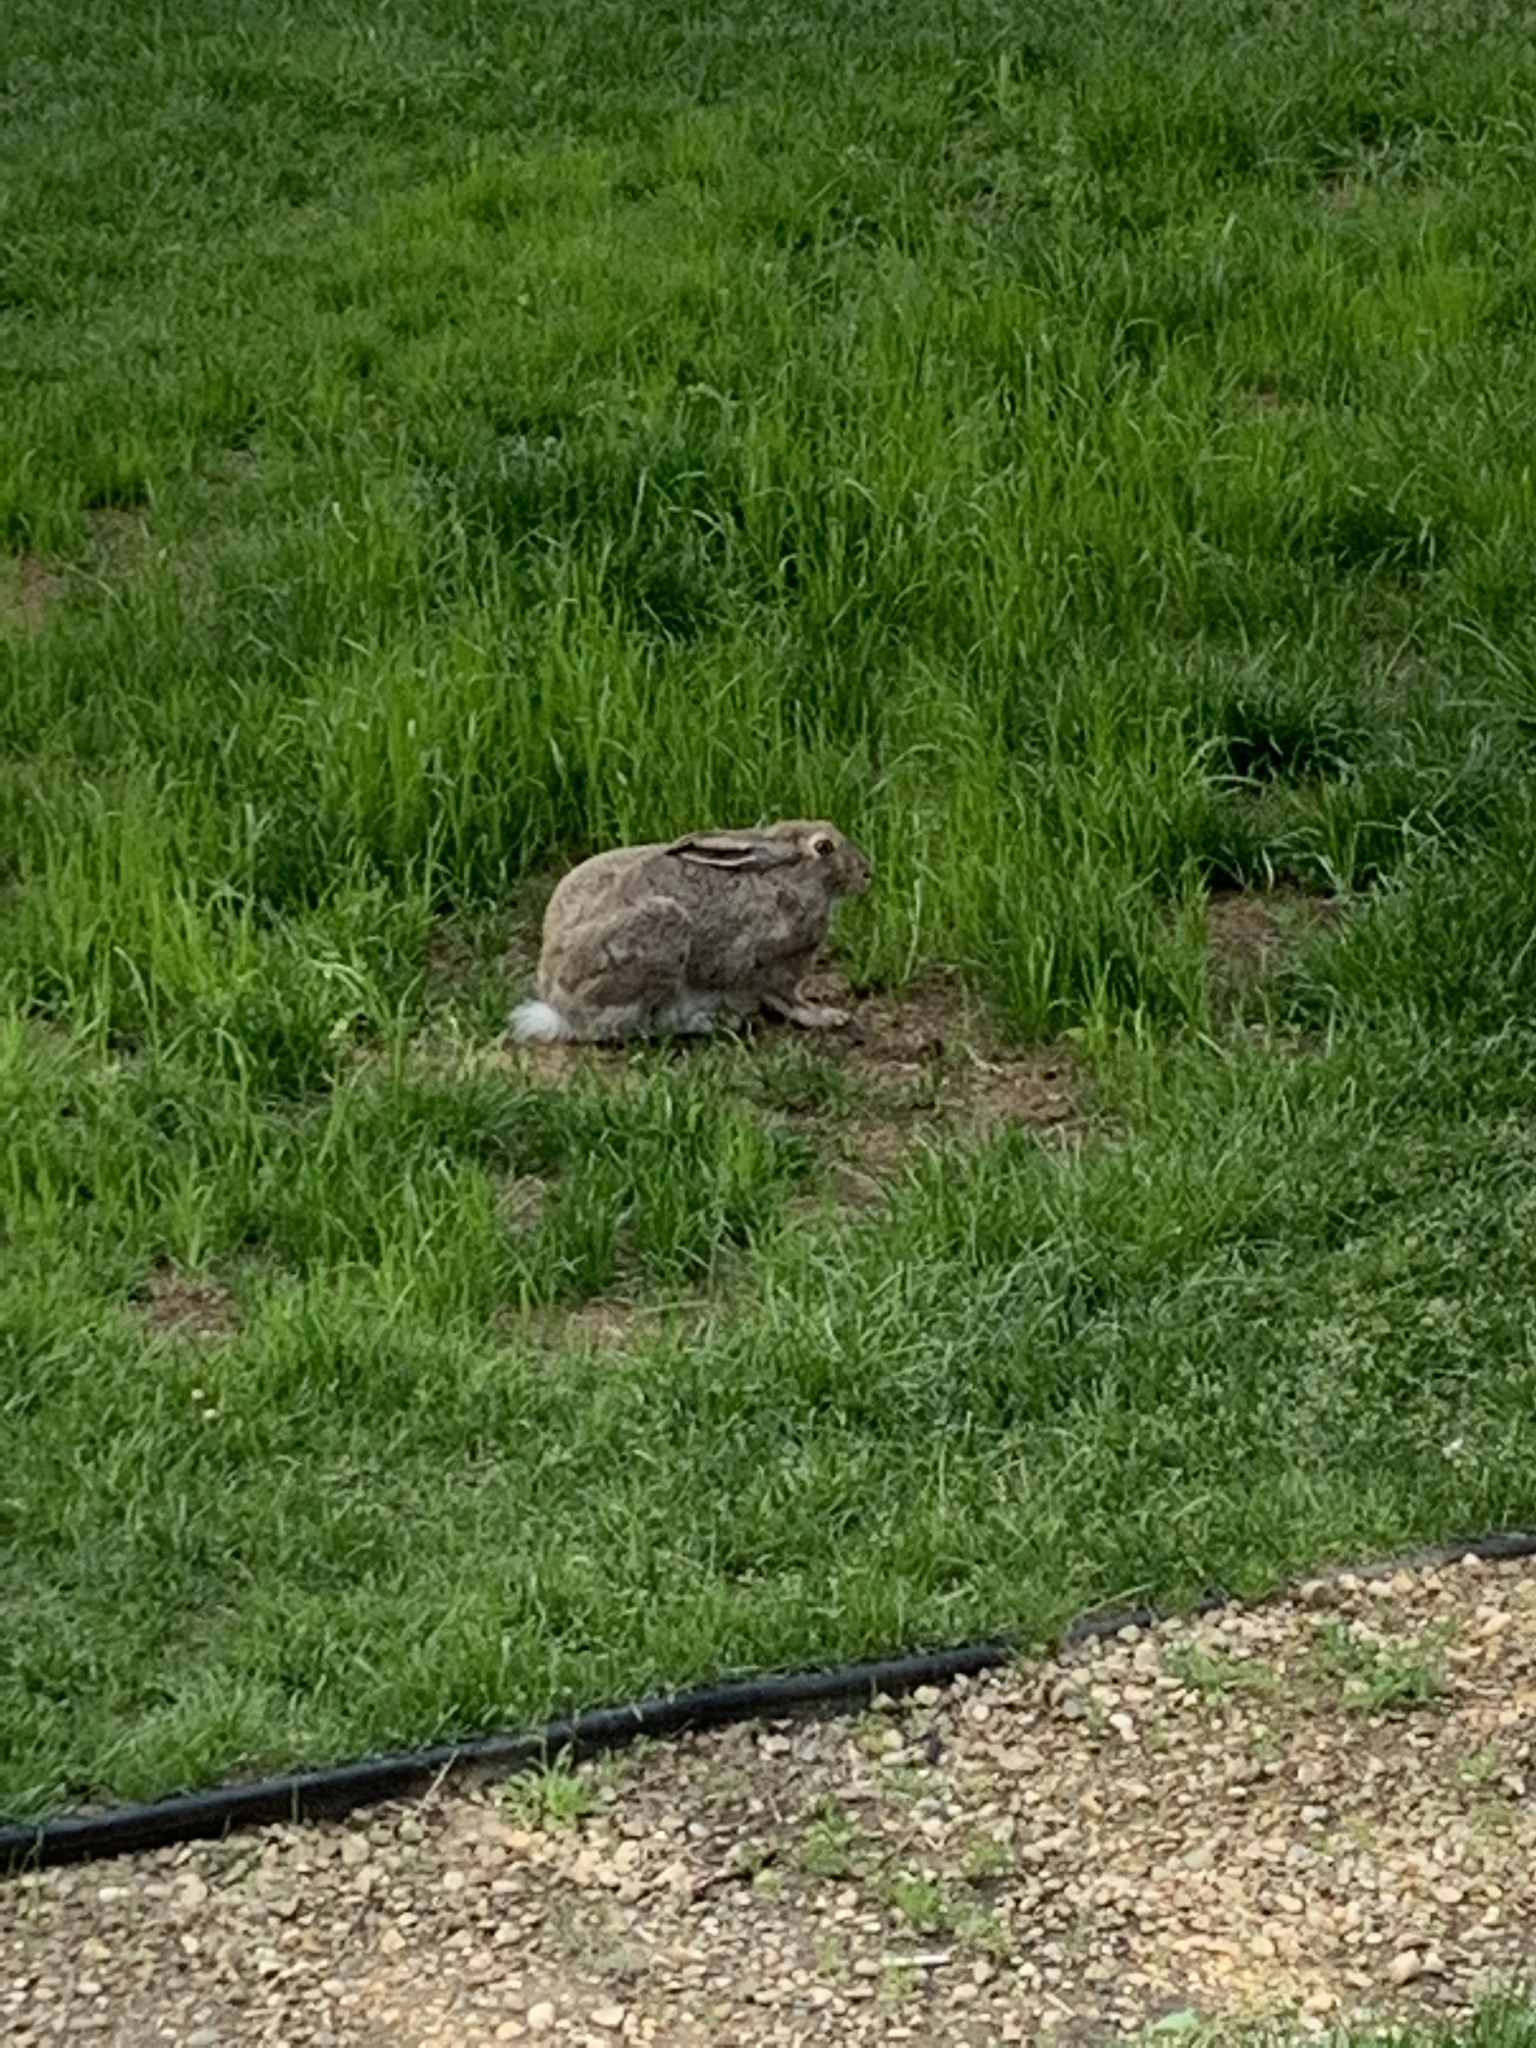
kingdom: Animalia
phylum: Chordata
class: Mammalia
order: Lagomorpha
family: Leporidae
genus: Lepus
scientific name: Lepus townsendii
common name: White-tailed jackrabbit
